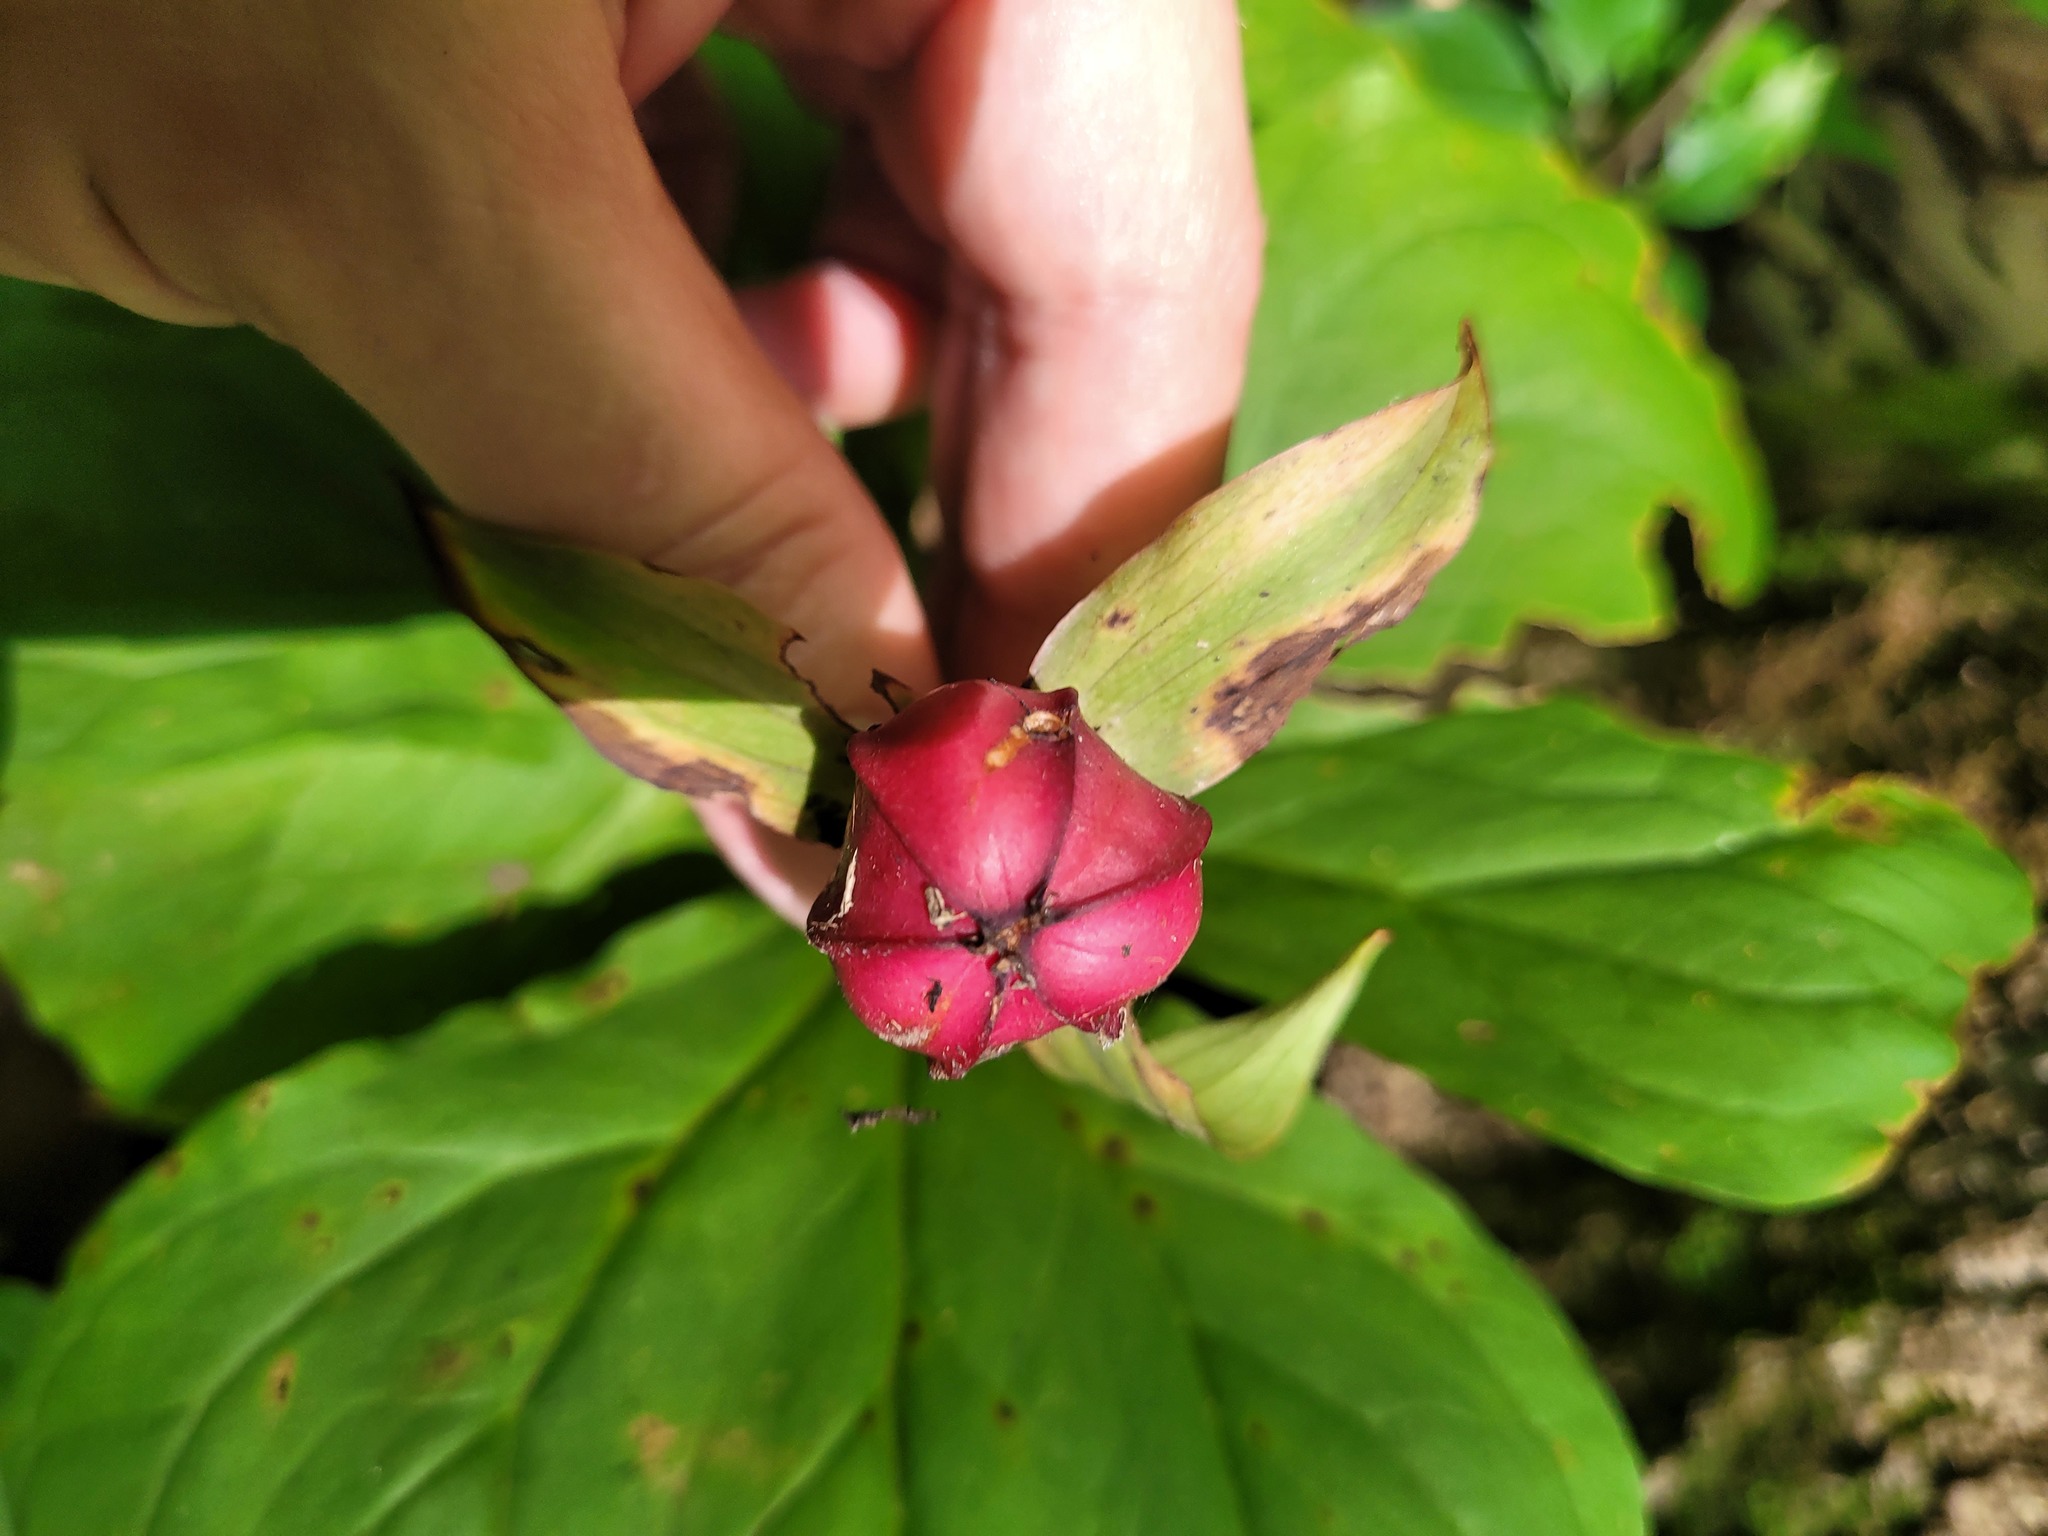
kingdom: Plantae
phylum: Tracheophyta
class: Liliopsida
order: Liliales
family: Melanthiaceae
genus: Trillium
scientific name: Trillium erectum
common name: Purple trillium
